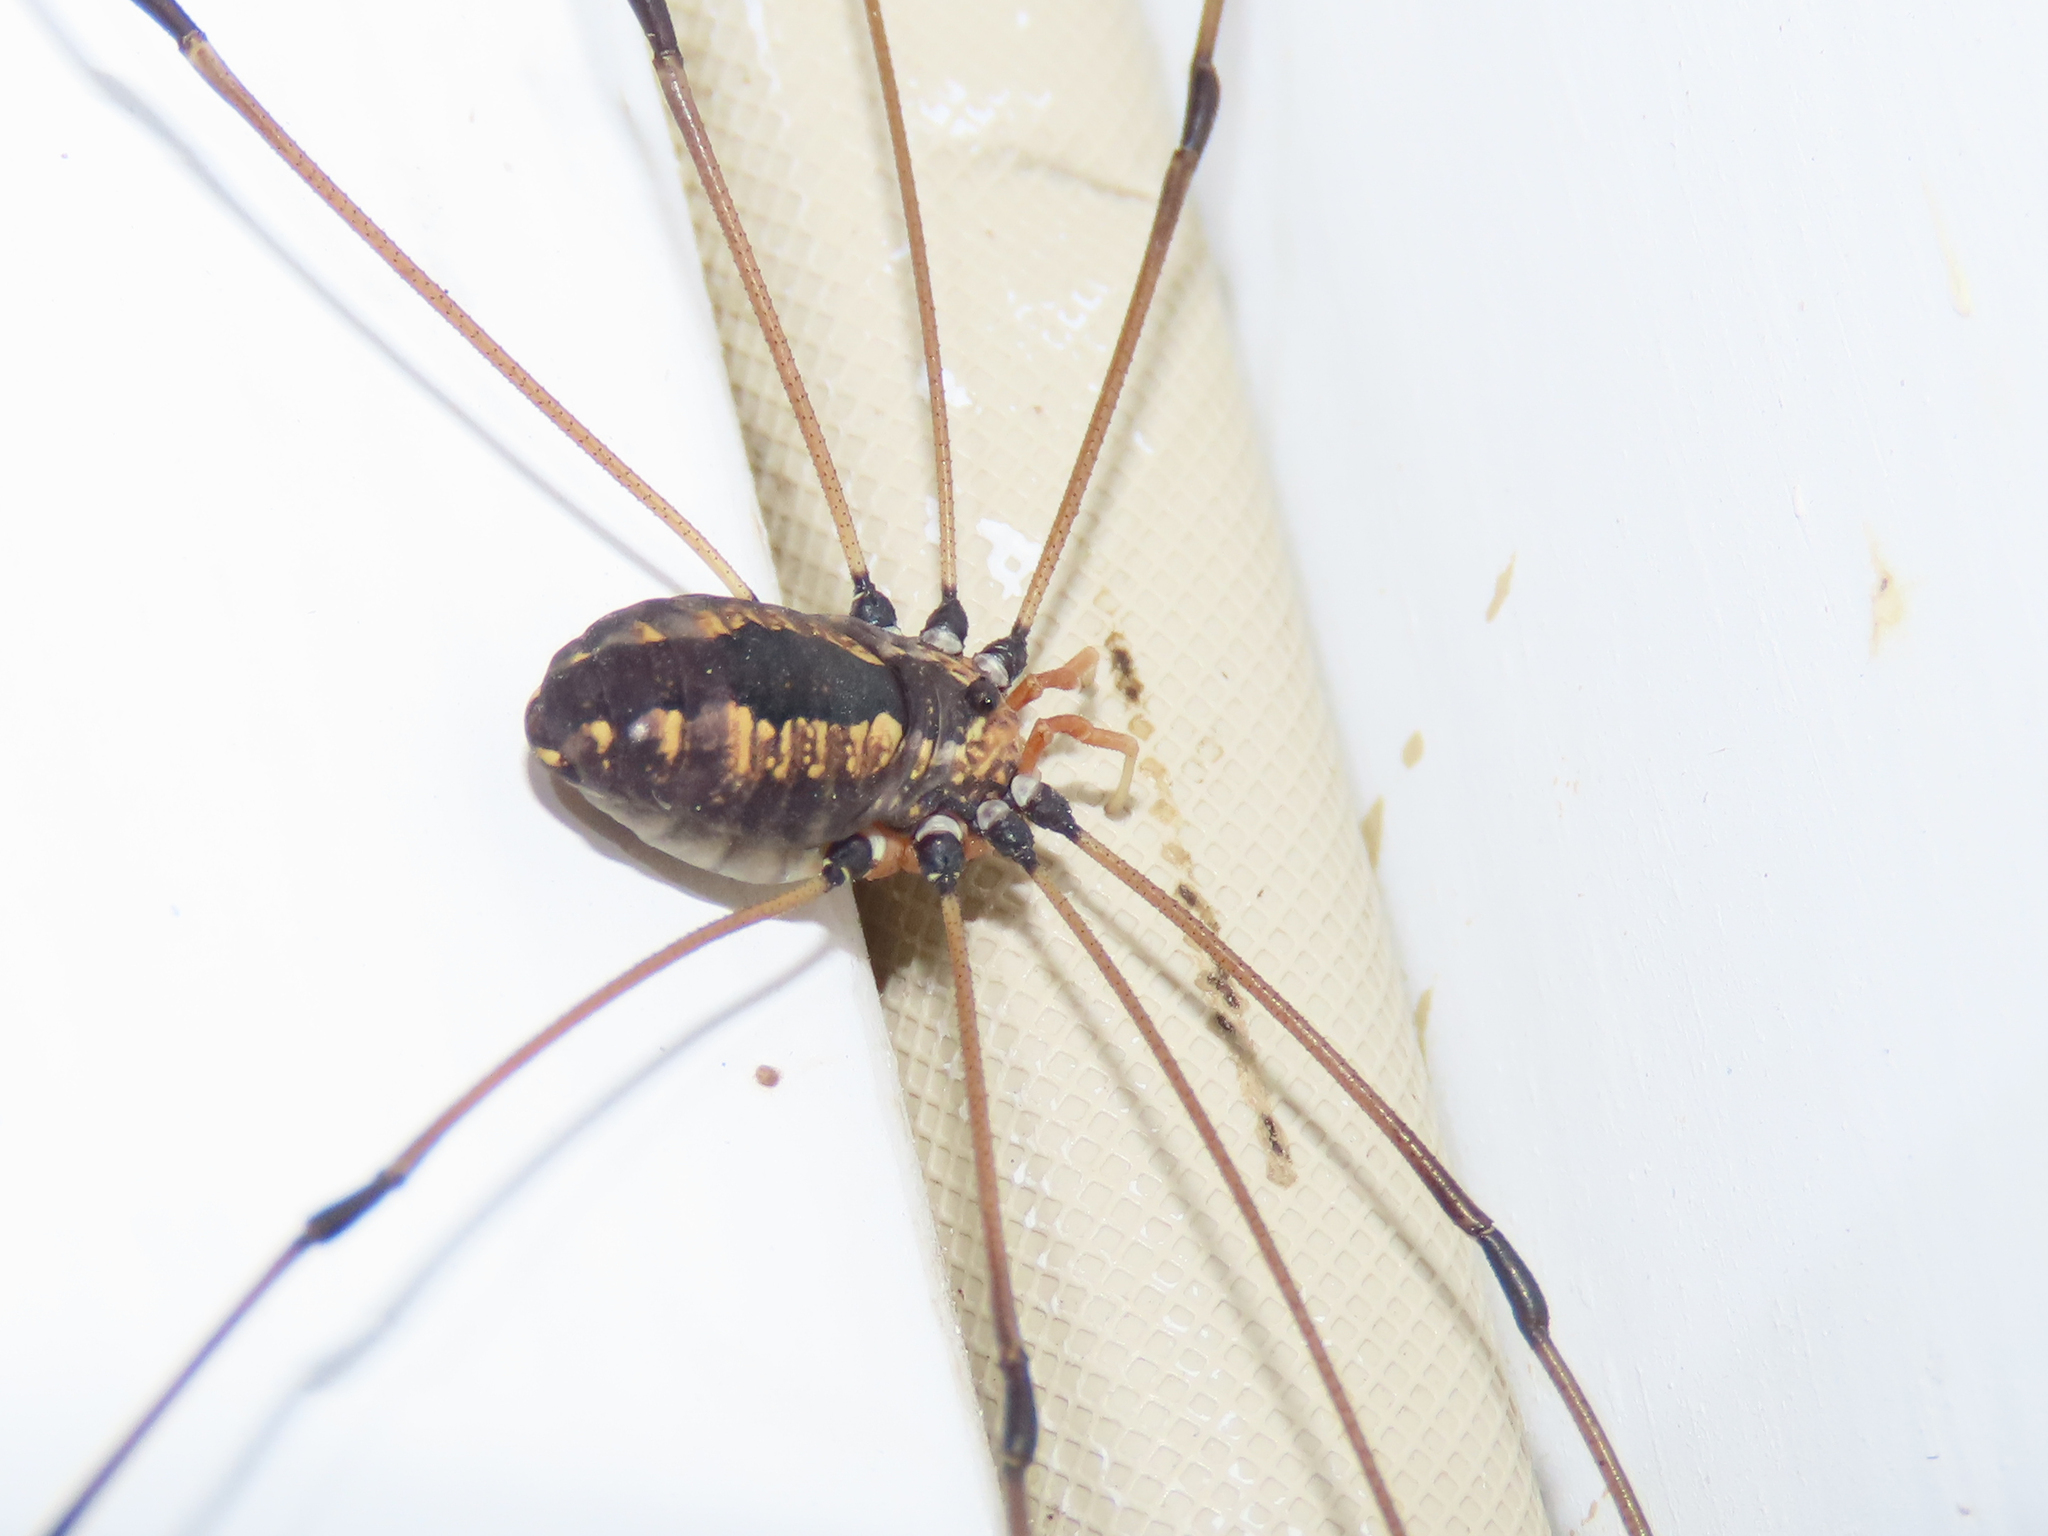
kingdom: Animalia
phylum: Arthropoda
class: Arachnida
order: Opiliones
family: Sclerosomatidae
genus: Leiobunum
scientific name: Leiobunum vittatum
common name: Eastern harvestman
